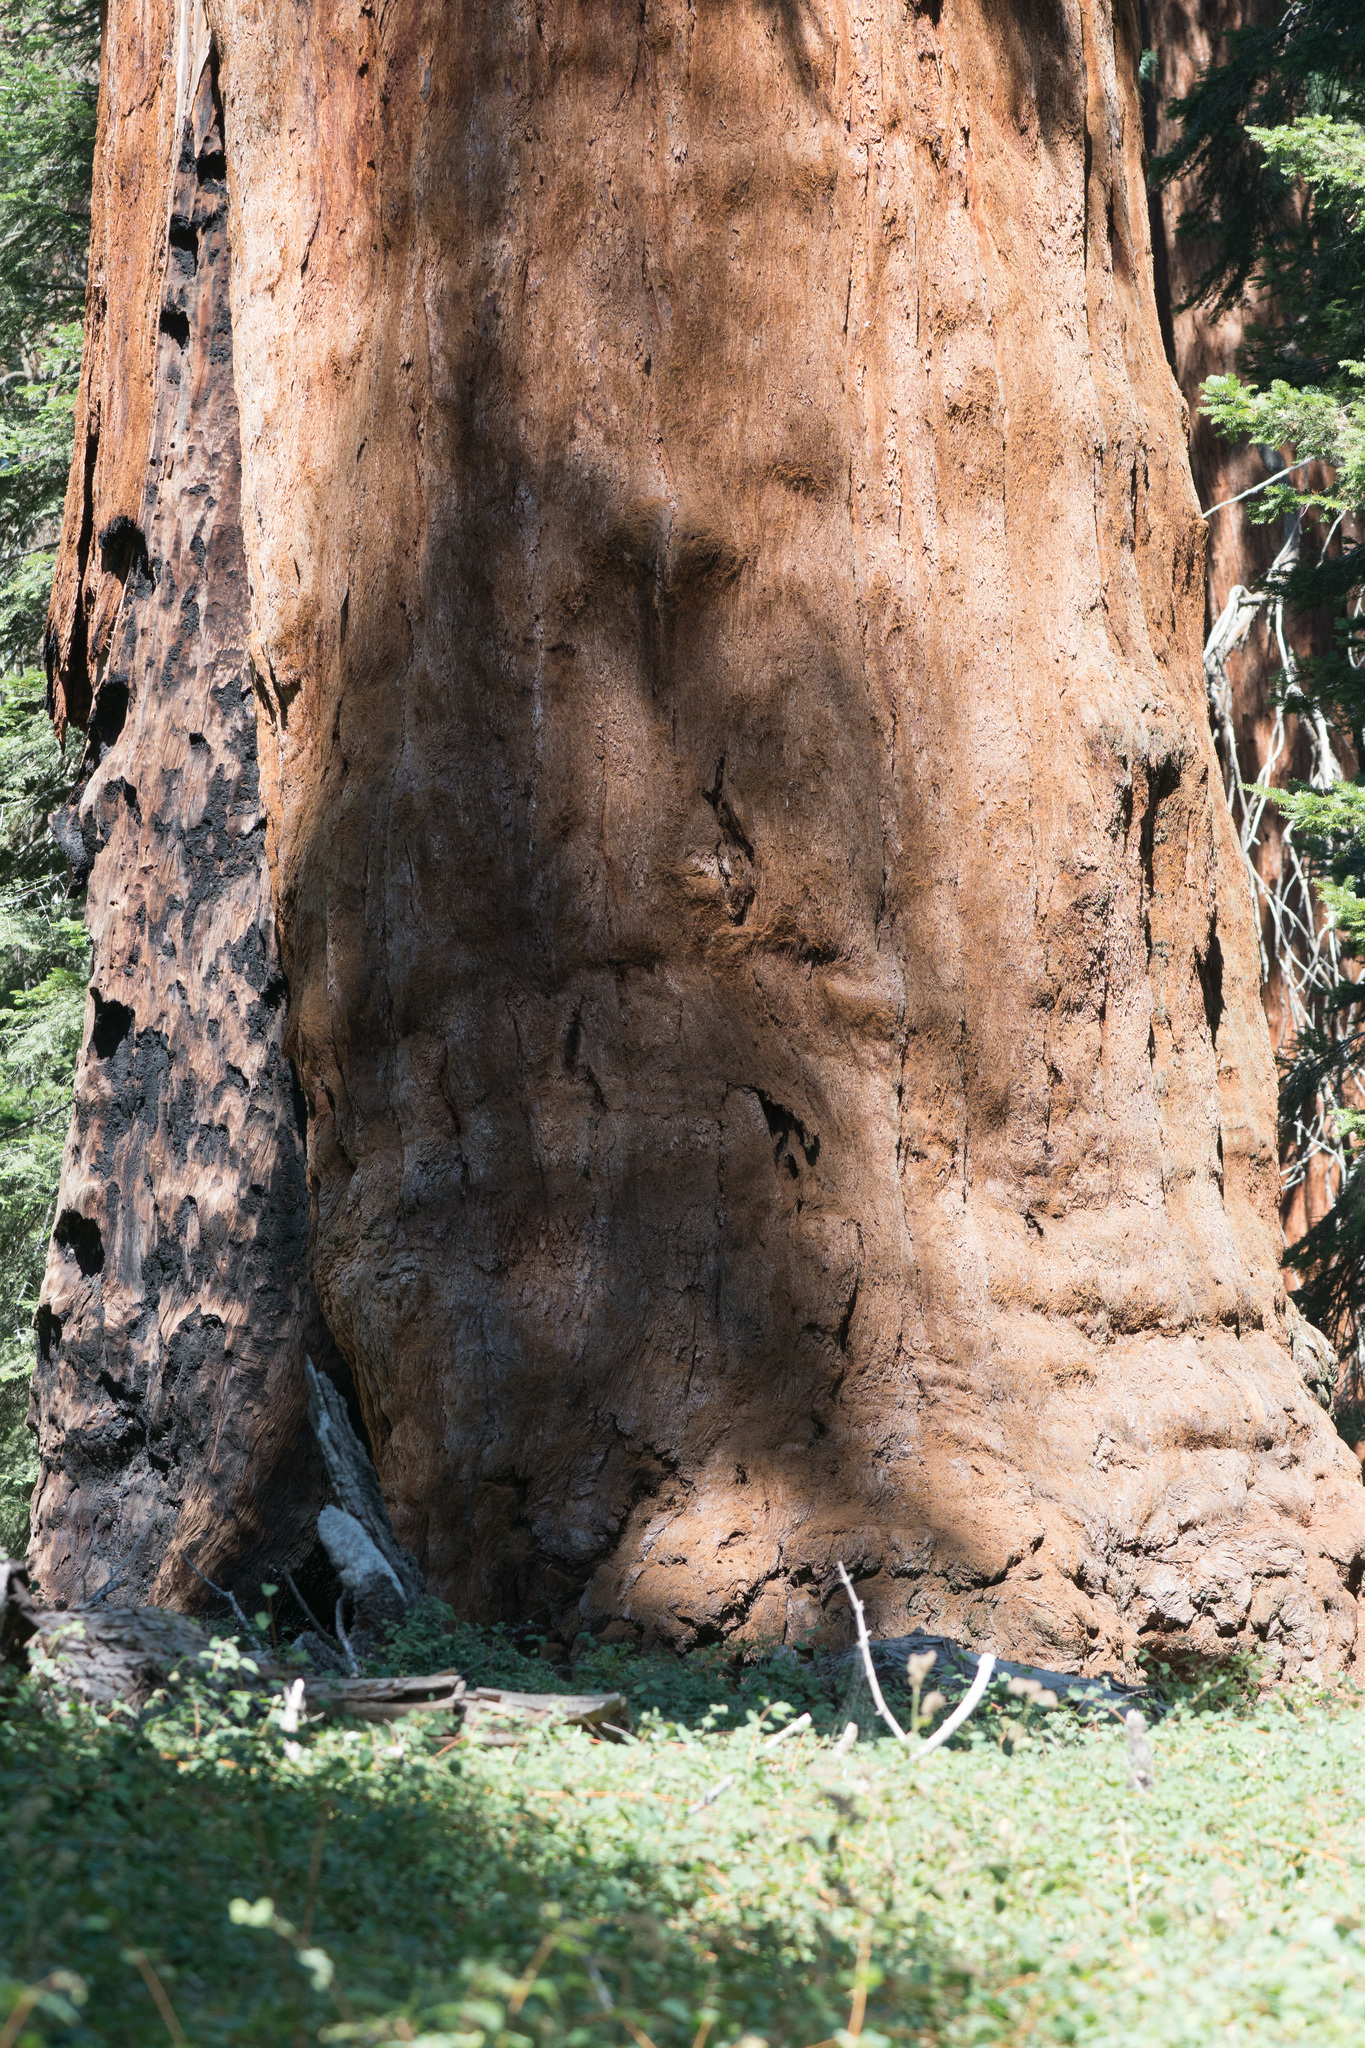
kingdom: Plantae
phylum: Tracheophyta
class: Pinopsida
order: Pinales
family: Cupressaceae
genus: Sequoiadendron
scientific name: Sequoiadendron giganteum
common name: Wellingtonia
